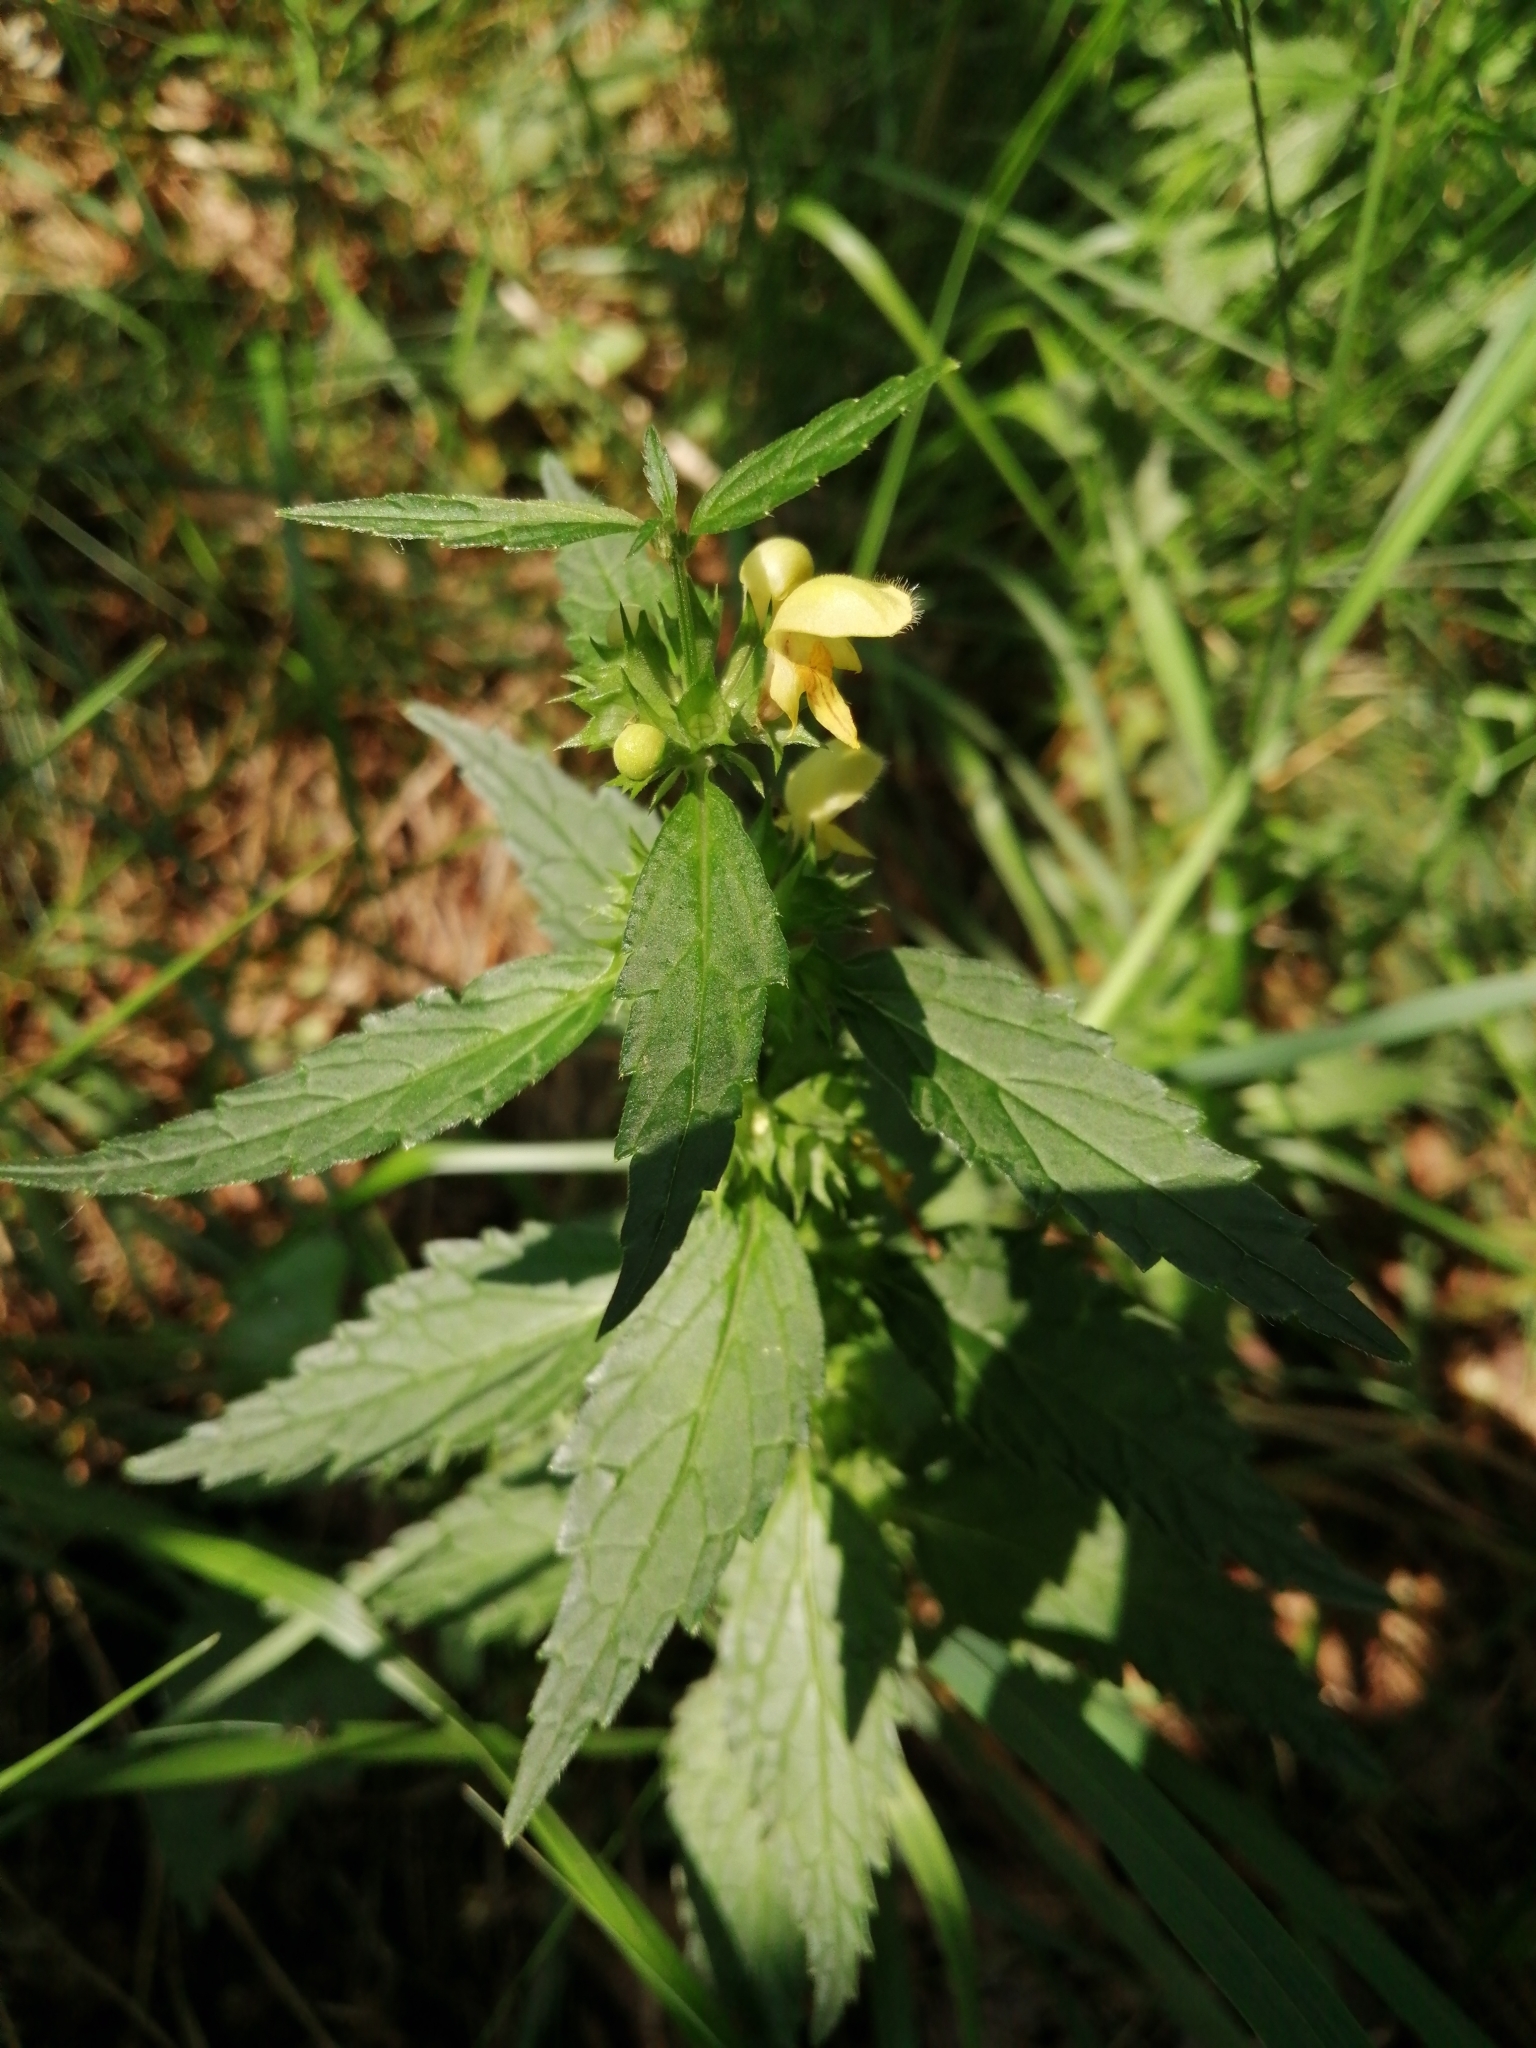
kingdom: Plantae
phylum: Tracheophyta
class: Magnoliopsida
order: Lamiales
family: Lamiaceae
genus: Lamium
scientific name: Lamium galeobdolon
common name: Yellow archangel
